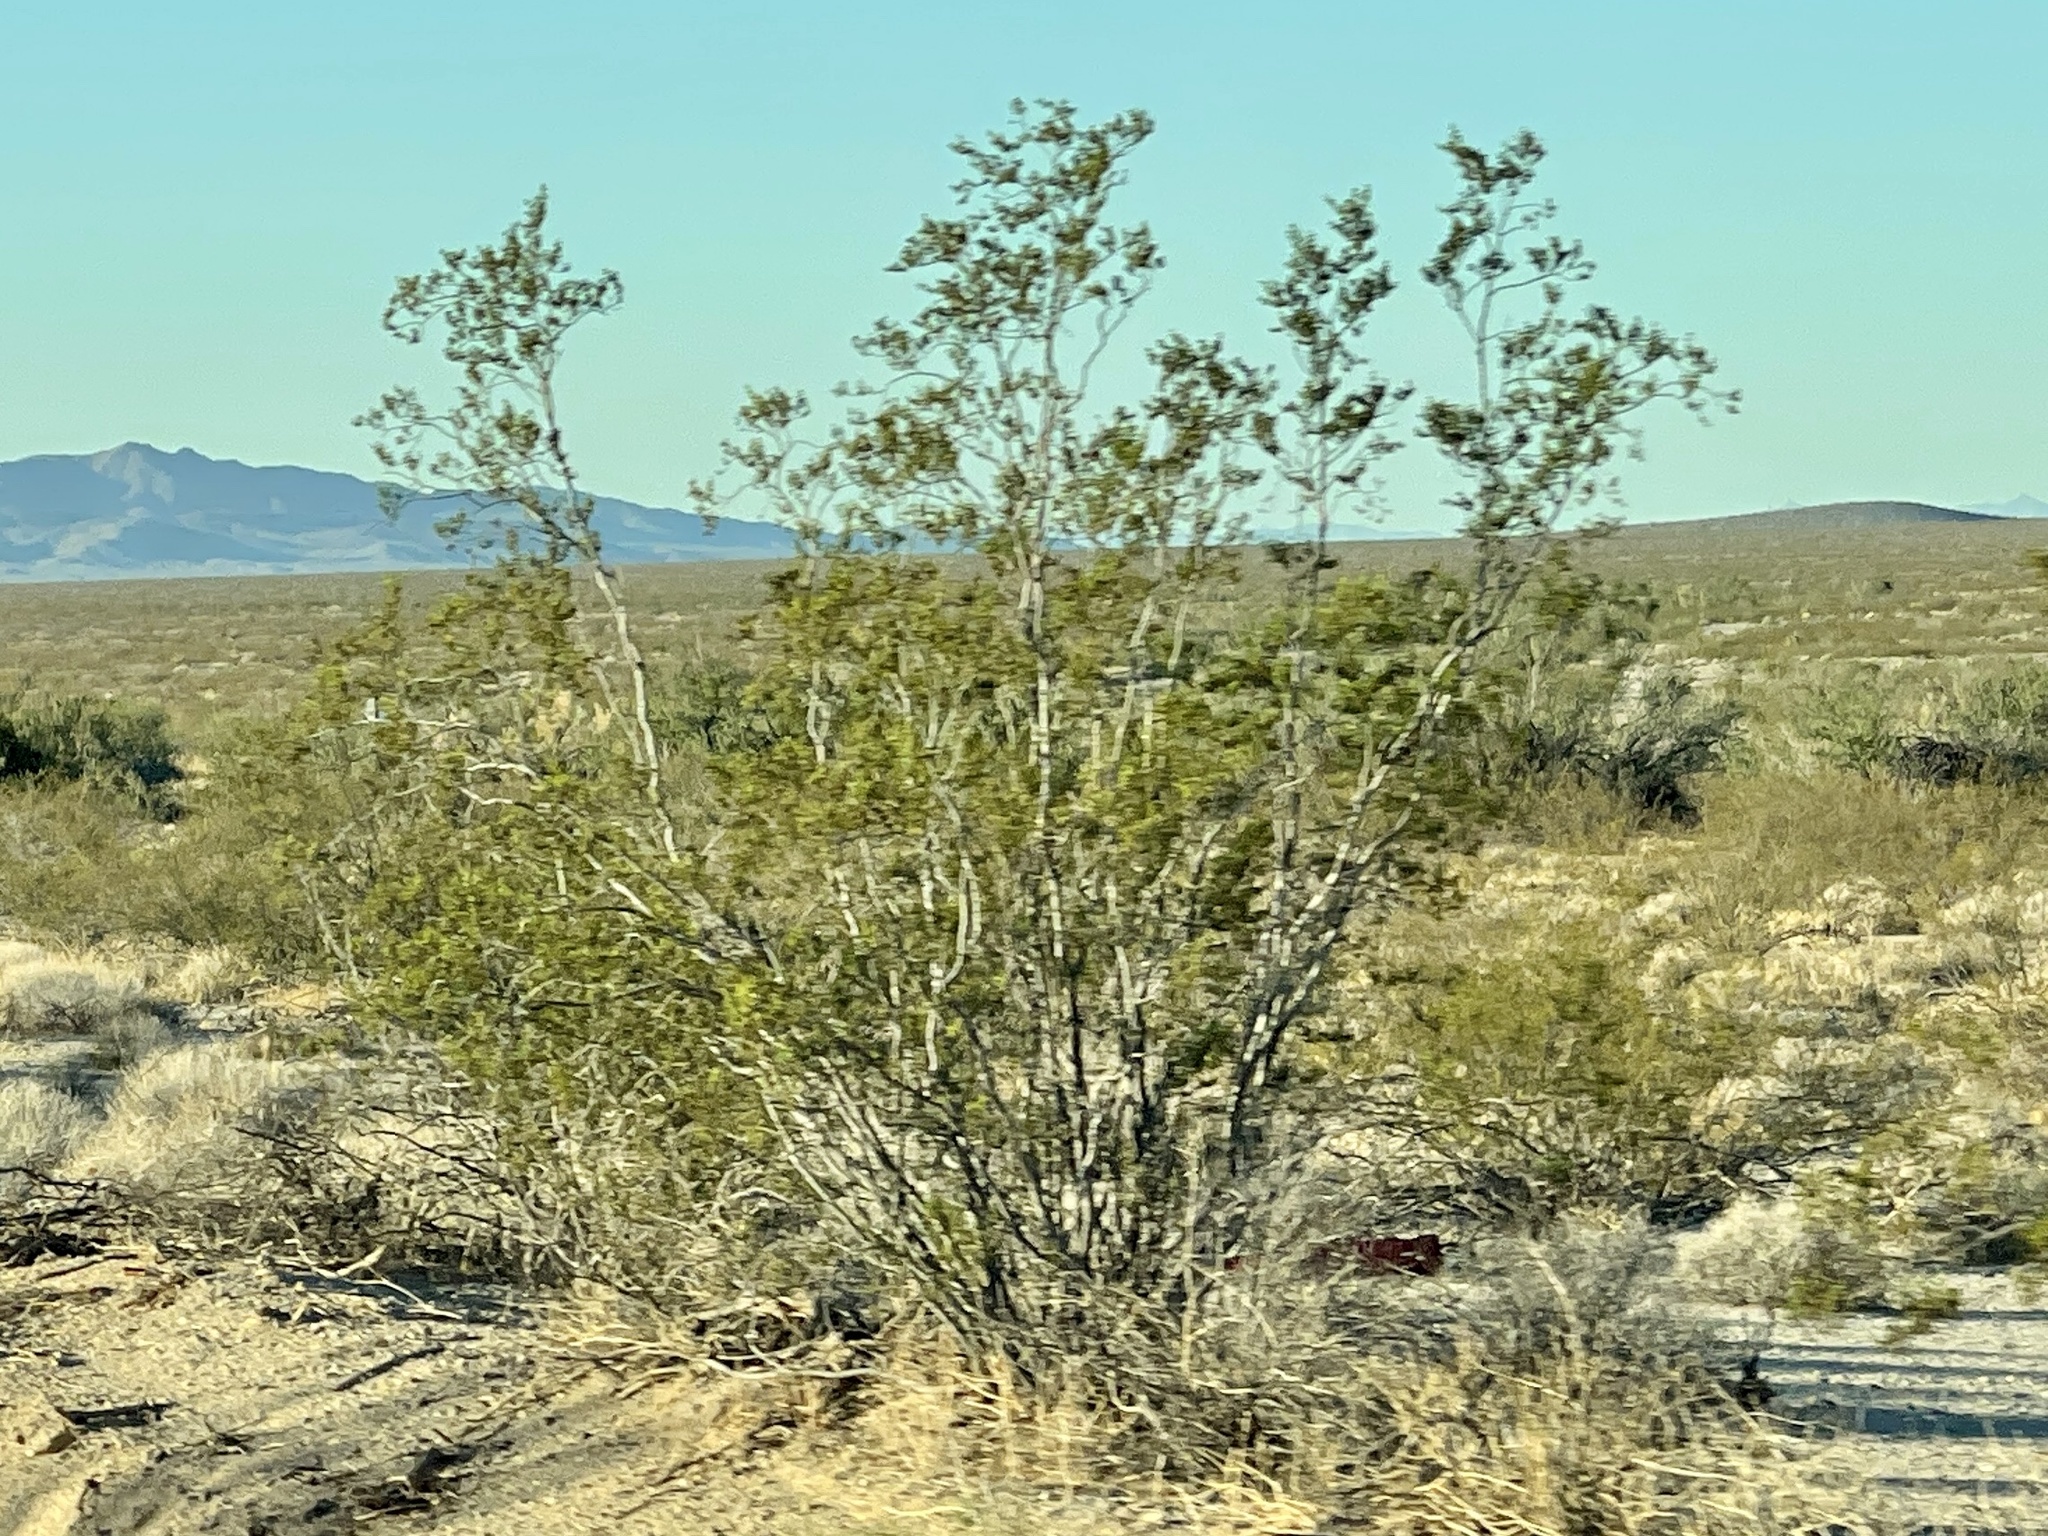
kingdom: Plantae
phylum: Tracheophyta
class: Magnoliopsida
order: Zygophyllales
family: Zygophyllaceae
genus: Larrea
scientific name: Larrea tridentata
